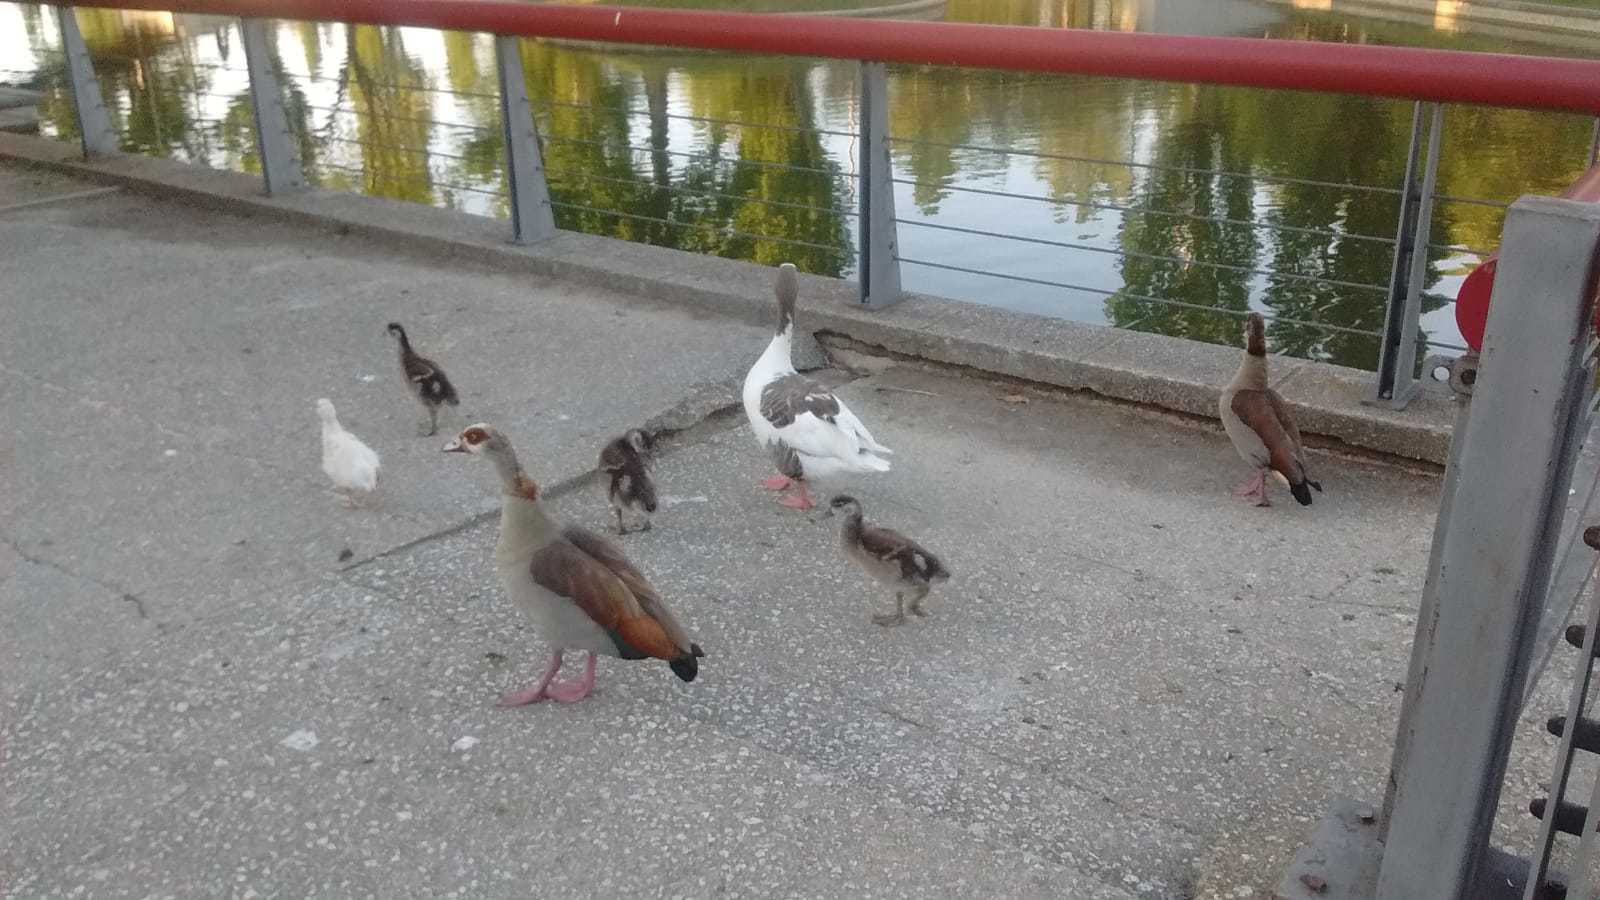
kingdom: Animalia
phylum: Chordata
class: Aves
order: Anseriformes
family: Anatidae
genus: Alopochen
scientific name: Alopochen aegyptiaca
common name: Egyptian goose
